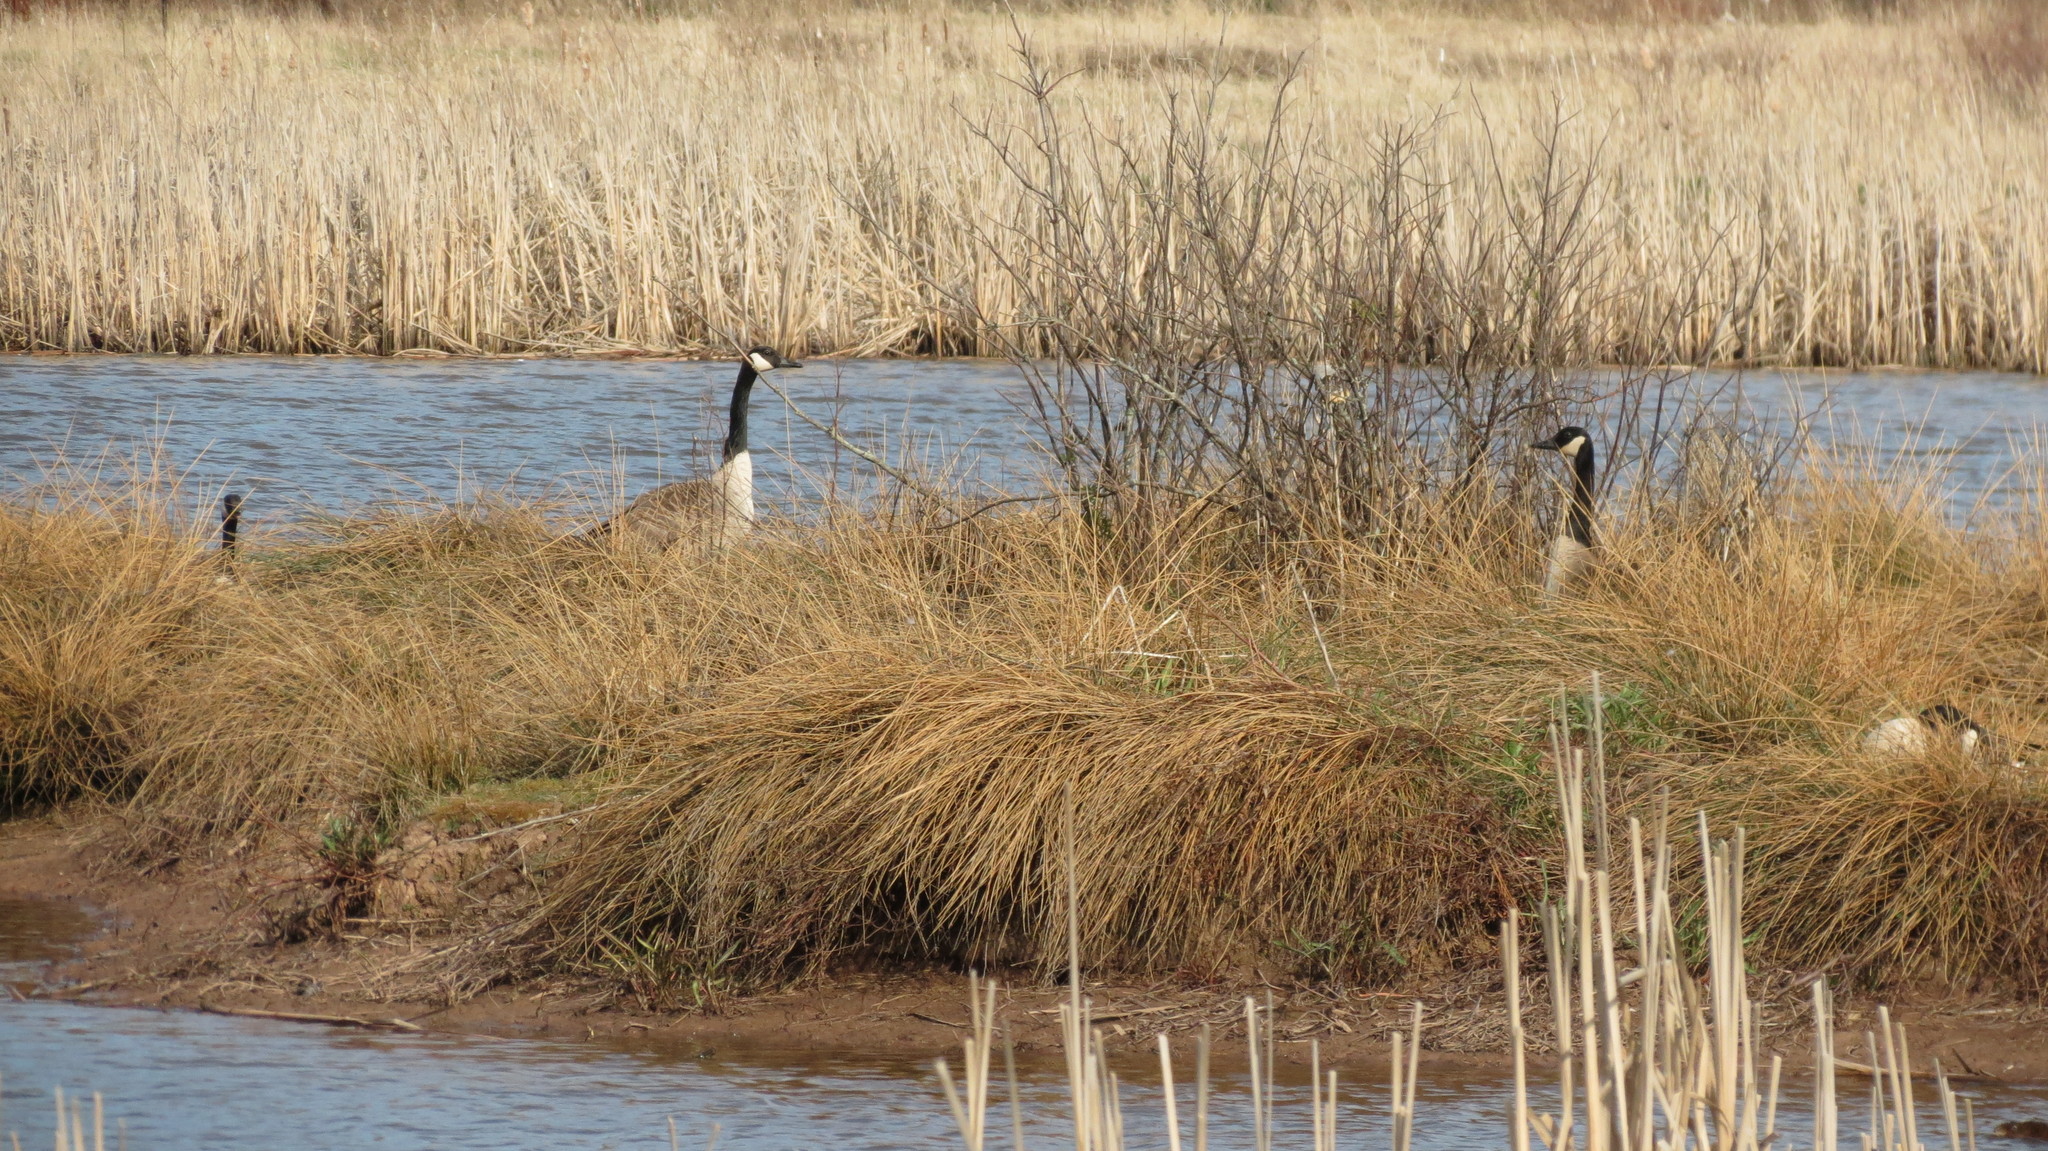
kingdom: Animalia
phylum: Chordata
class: Aves
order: Anseriformes
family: Anatidae
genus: Branta
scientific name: Branta canadensis
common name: Canada goose
